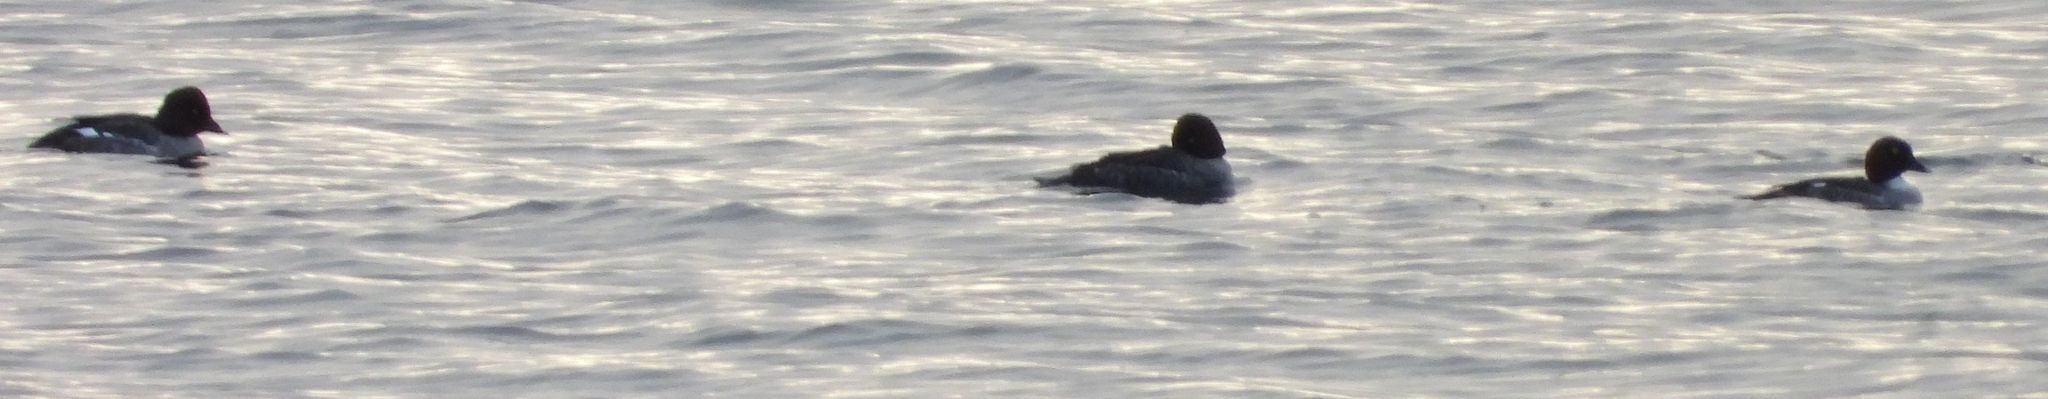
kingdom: Animalia
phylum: Chordata
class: Aves
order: Anseriformes
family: Anatidae
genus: Bucephala
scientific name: Bucephala clangula
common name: Common goldeneye
